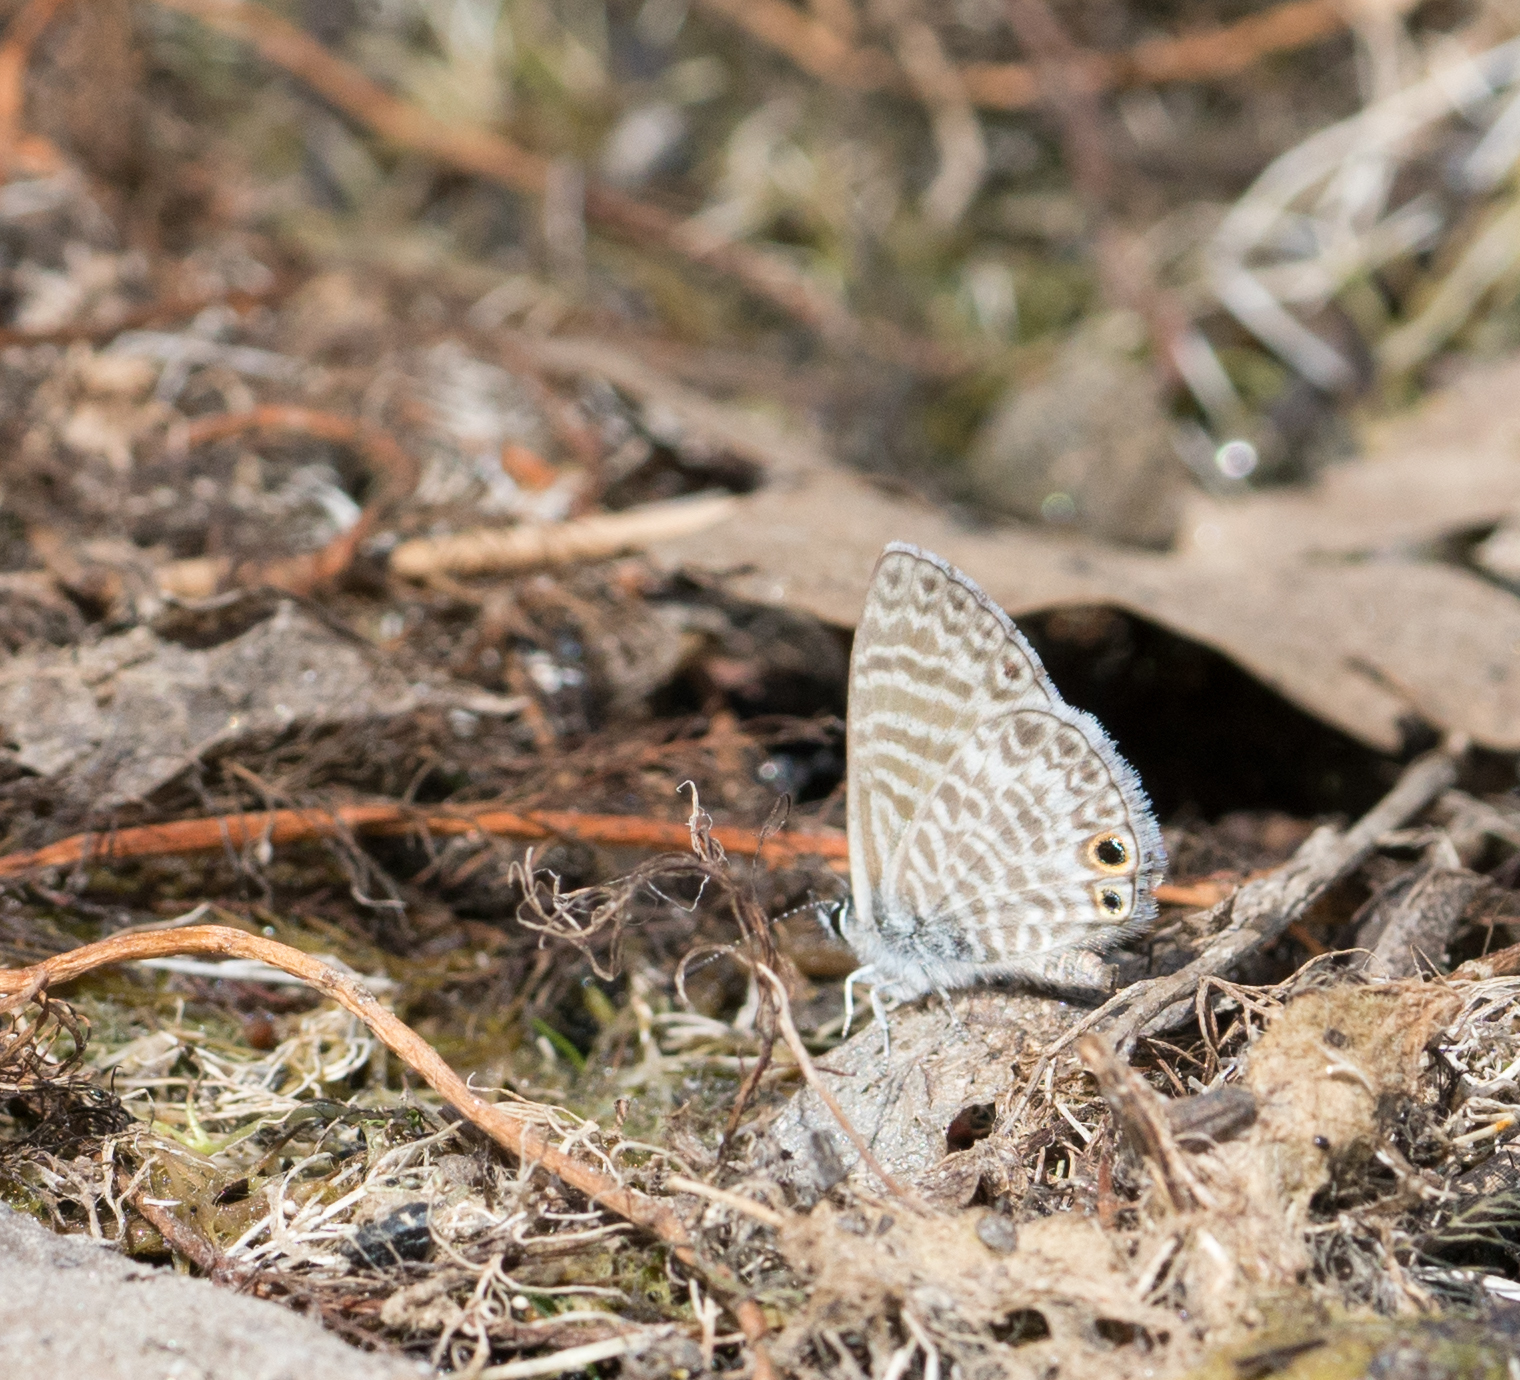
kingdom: Animalia
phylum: Arthropoda
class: Insecta
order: Lepidoptera
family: Lycaenidae
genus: Leptotes
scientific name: Leptotes marina
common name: Marine blue
